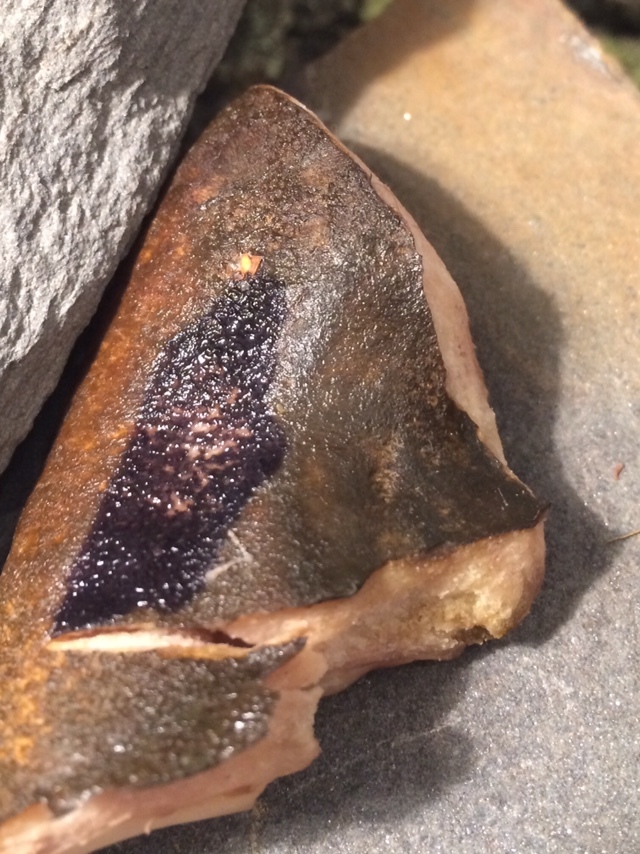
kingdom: Fungi
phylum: Basidiomycota
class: Agaricomycetes
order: Russulales
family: Russulaceae
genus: Lactarius
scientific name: Lactarius turpis
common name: Ugly milk-cap
